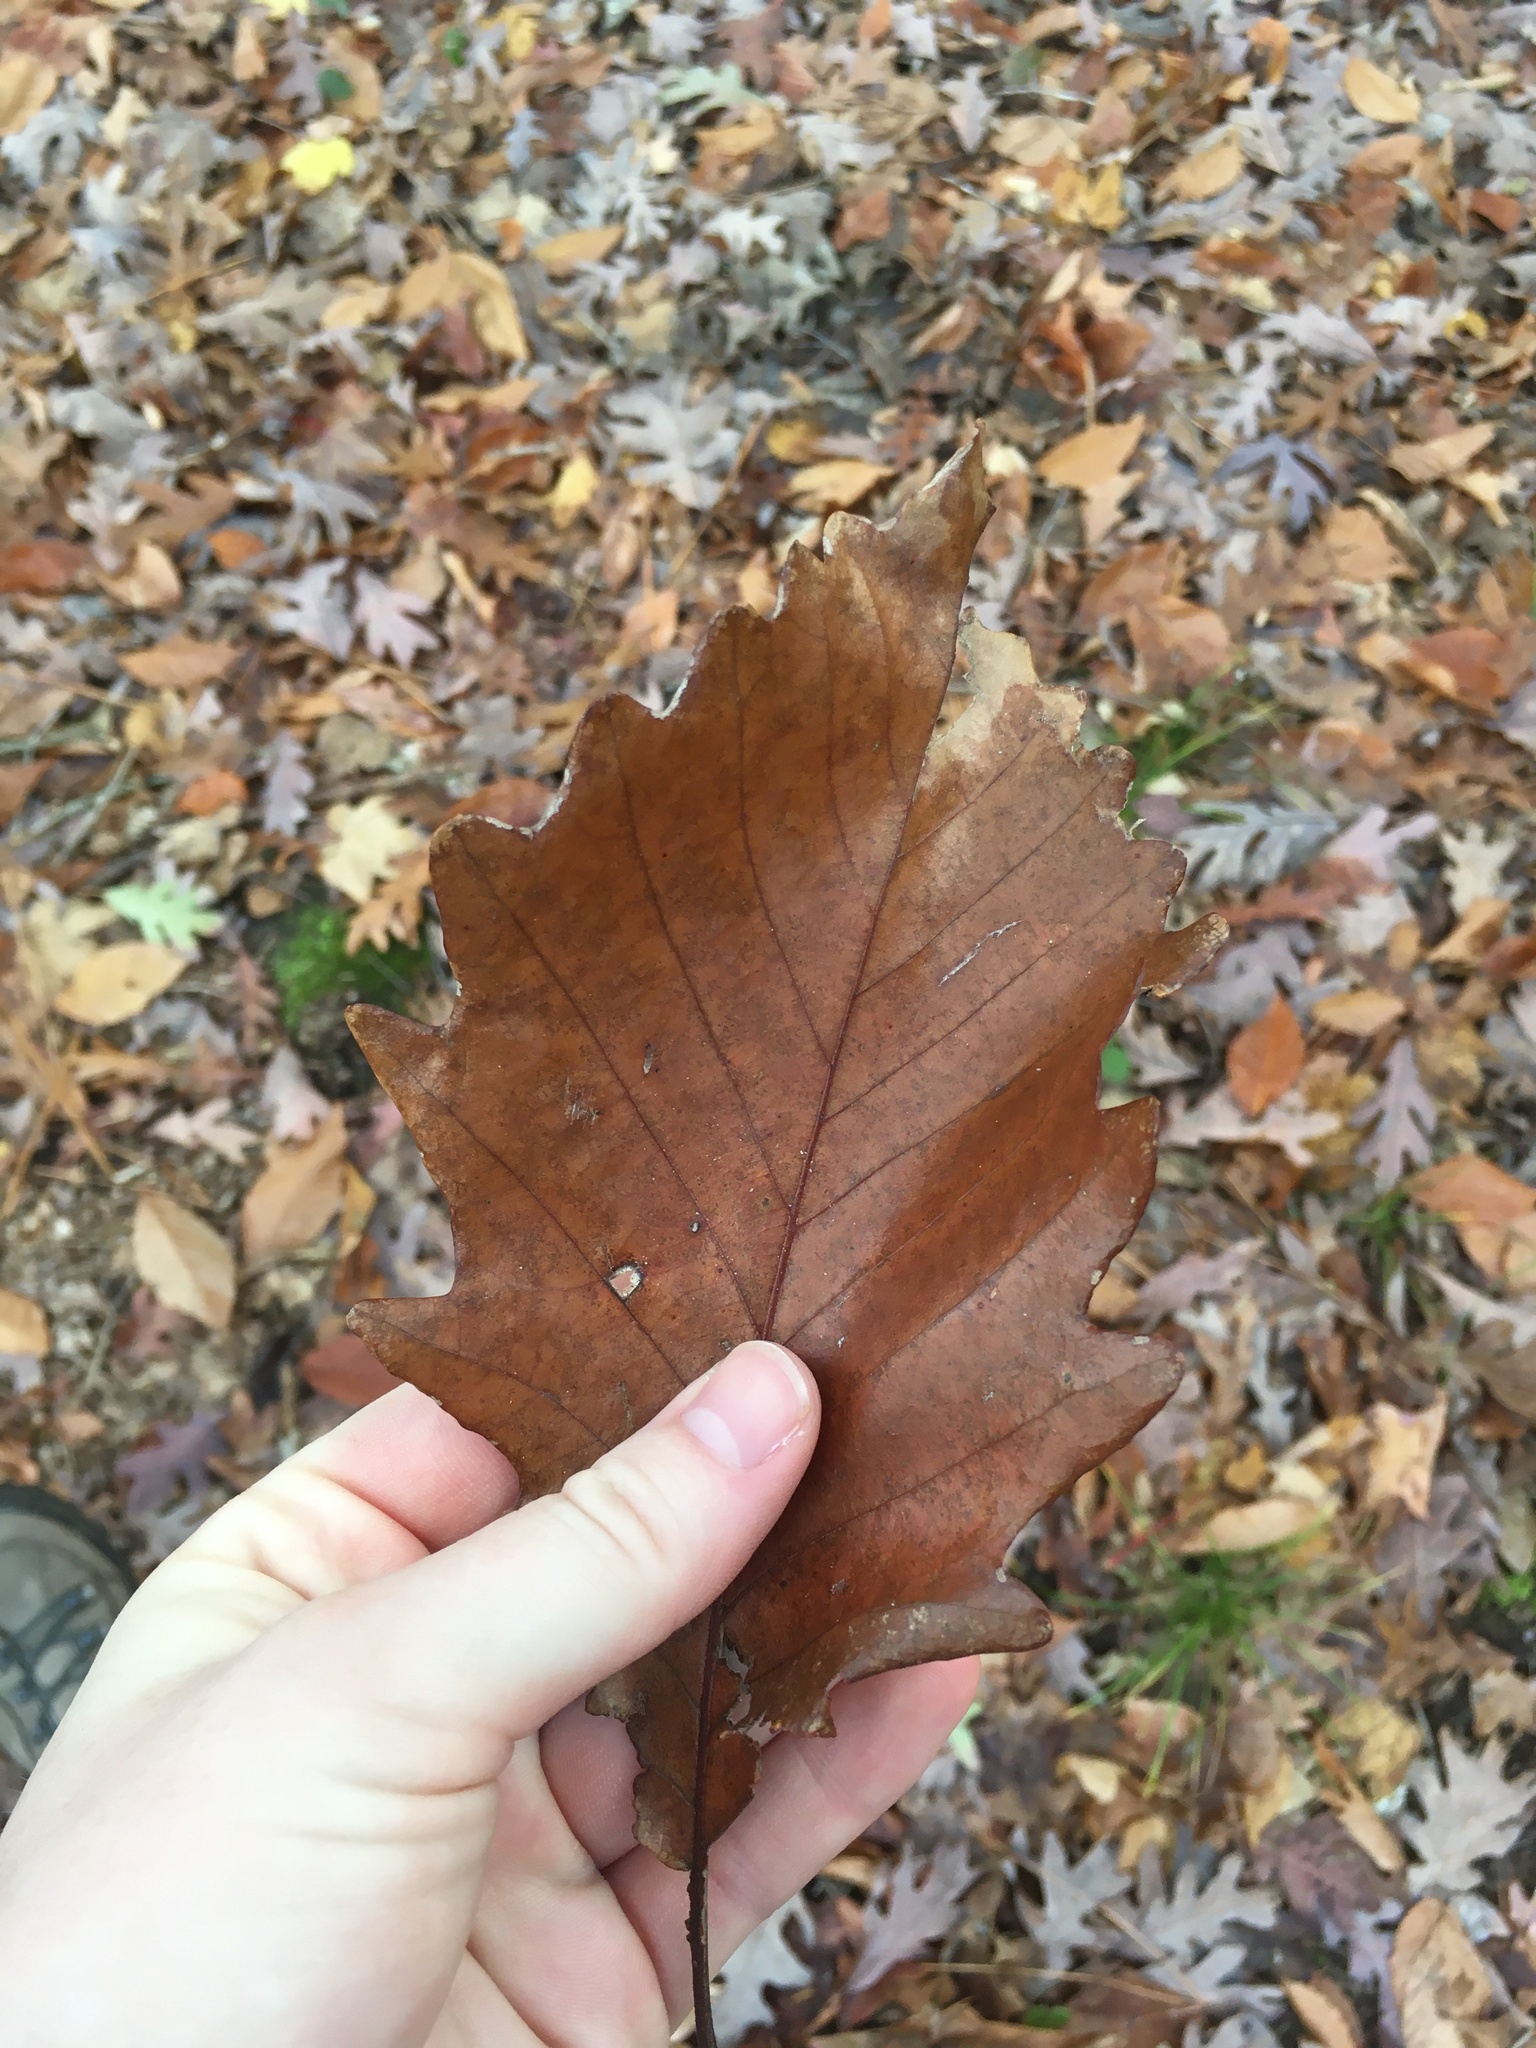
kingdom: Plantae
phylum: Tracheophyta
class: Magnoliopsida
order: Fagales
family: Fagaceae
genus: Quercus
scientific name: Quercus michauxii
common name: Swamp chestnut oak
